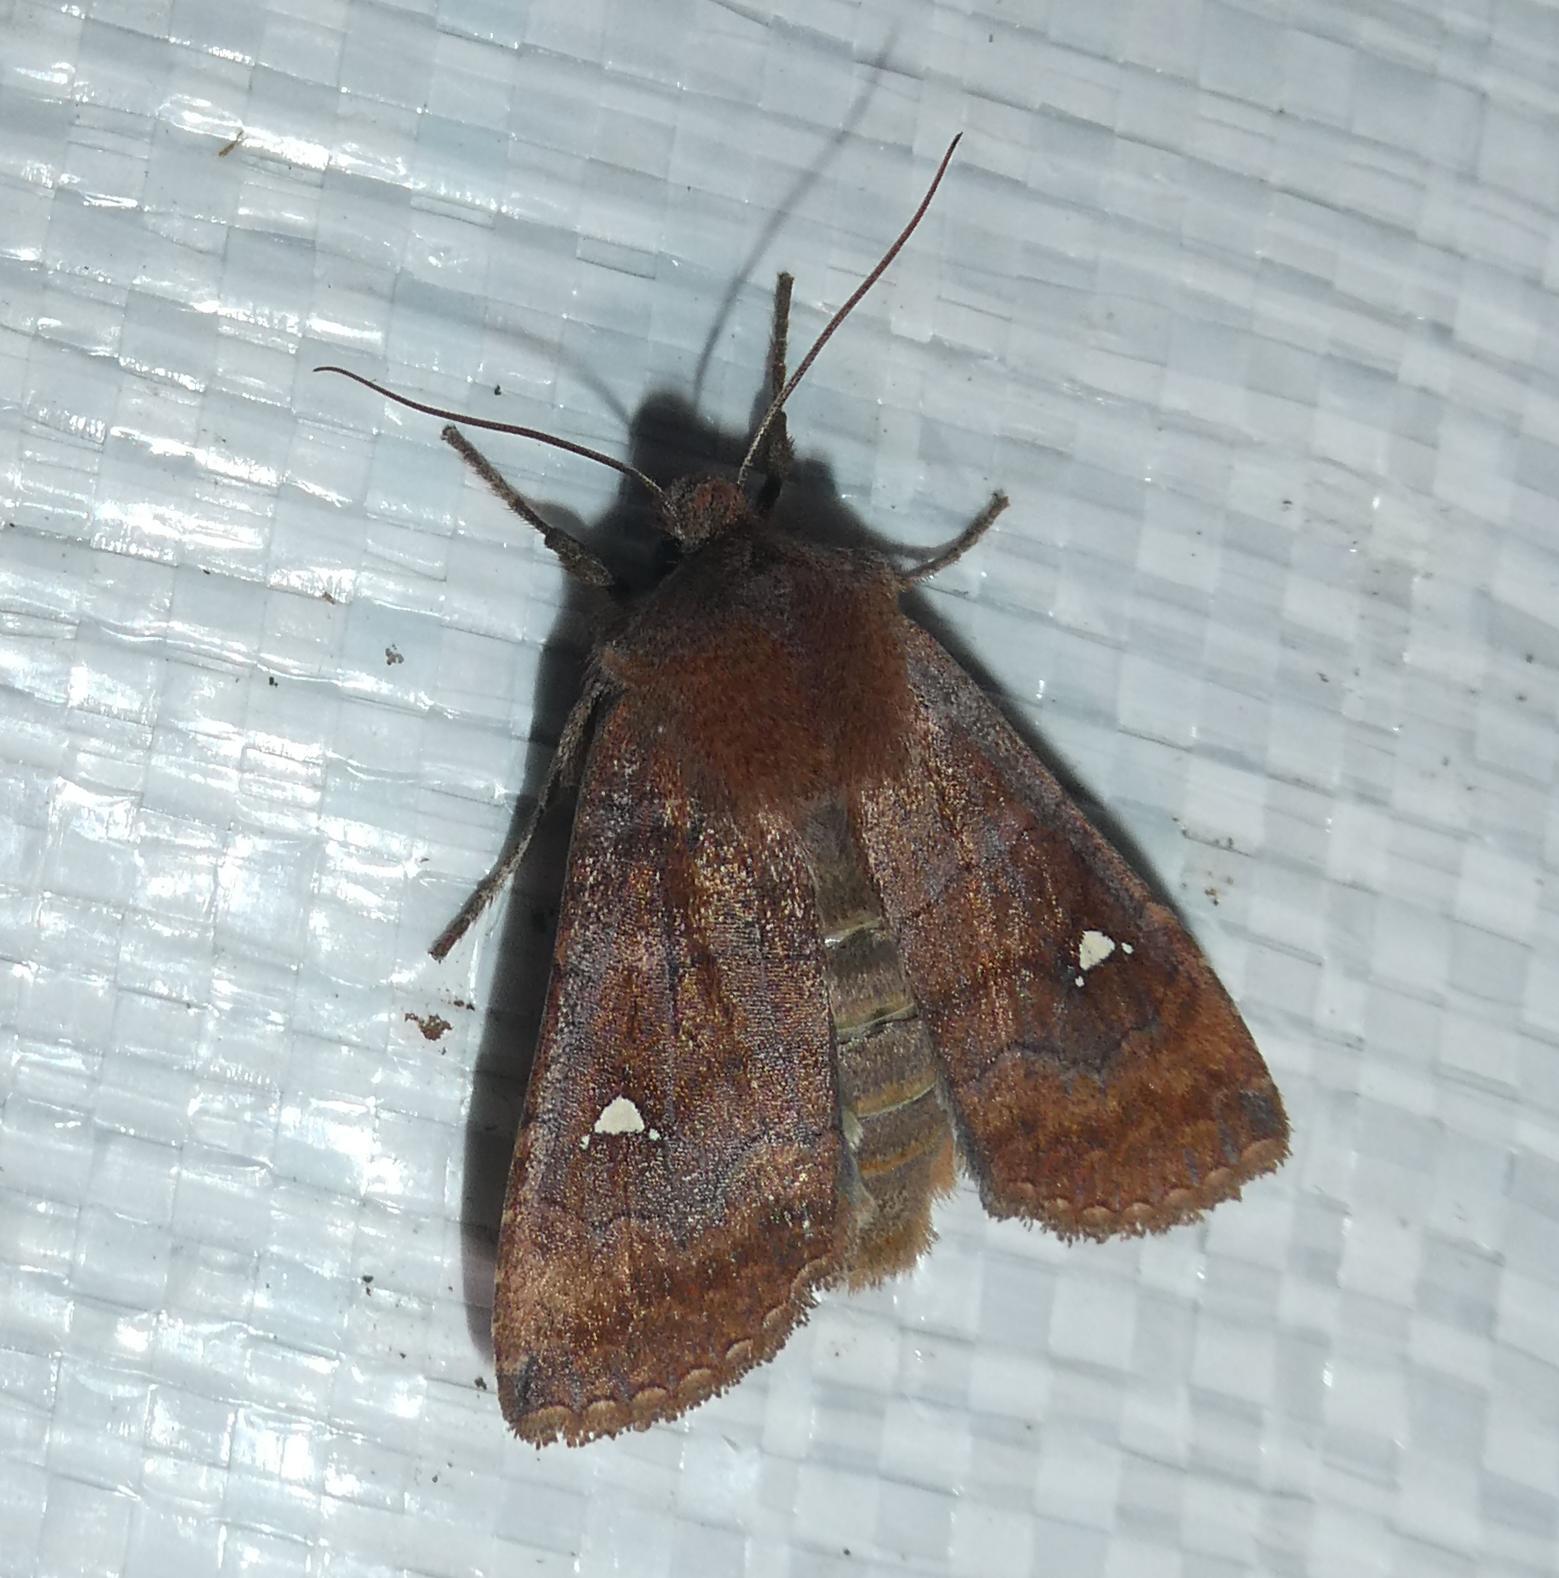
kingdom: Animalia
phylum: Arthropoda
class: Insecta
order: Lepidoptera
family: Noctuidae
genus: Eupsilia
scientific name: Eupsilia transversa
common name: Satellite
